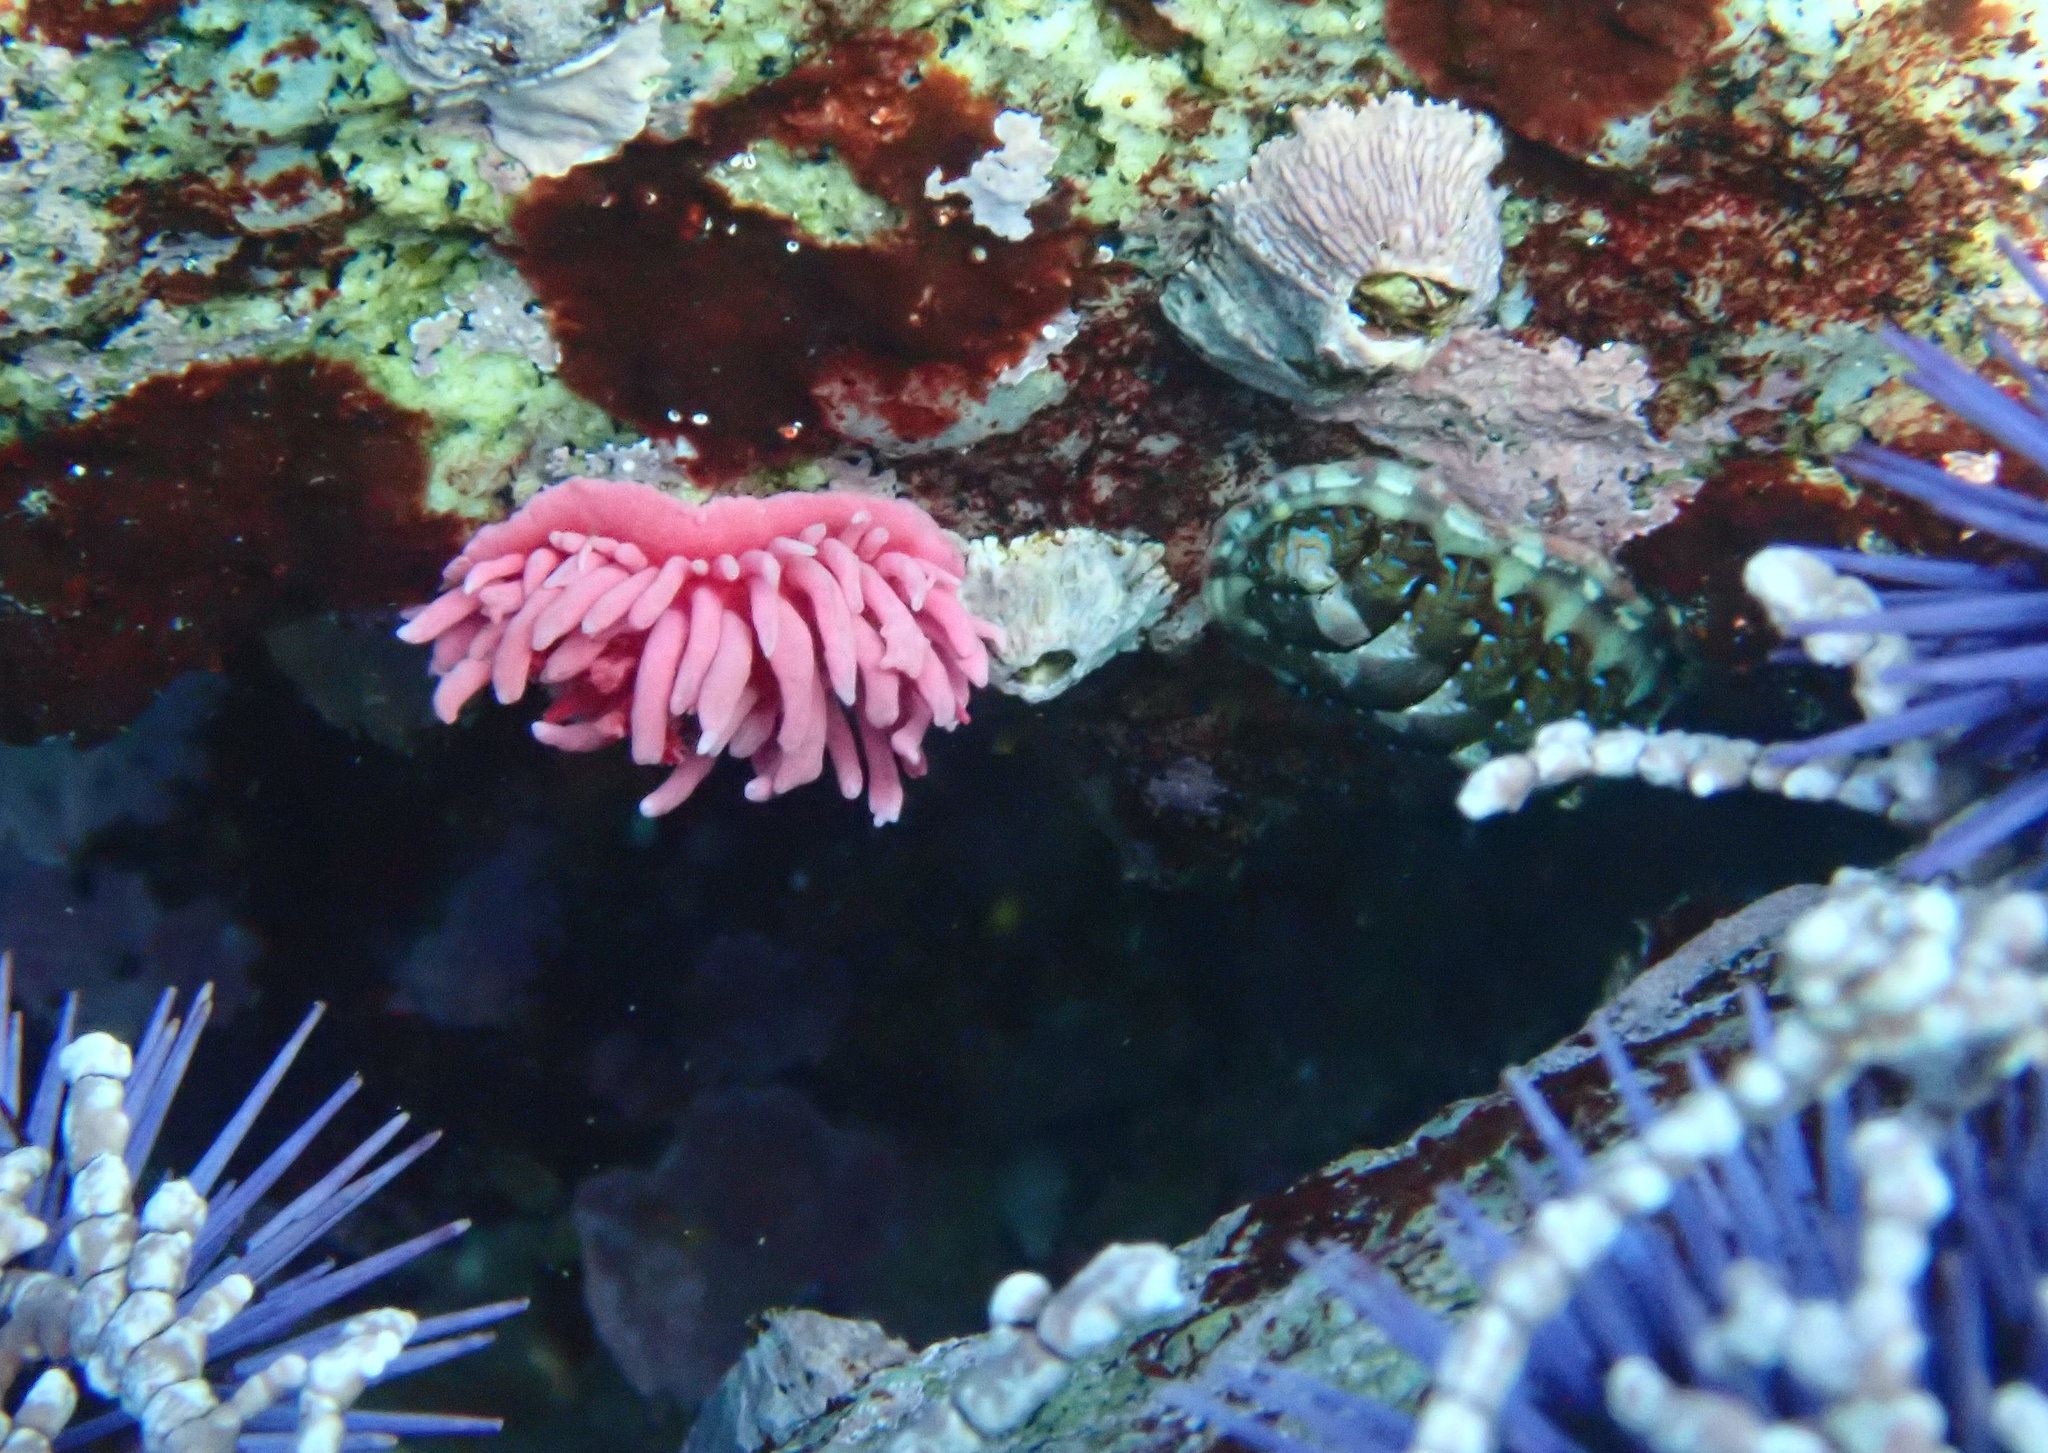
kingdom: Animalia
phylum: Mollusca
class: Gastropoda
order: Nudibranchia
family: Goniodorididae
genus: Okenia
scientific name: Okenia
